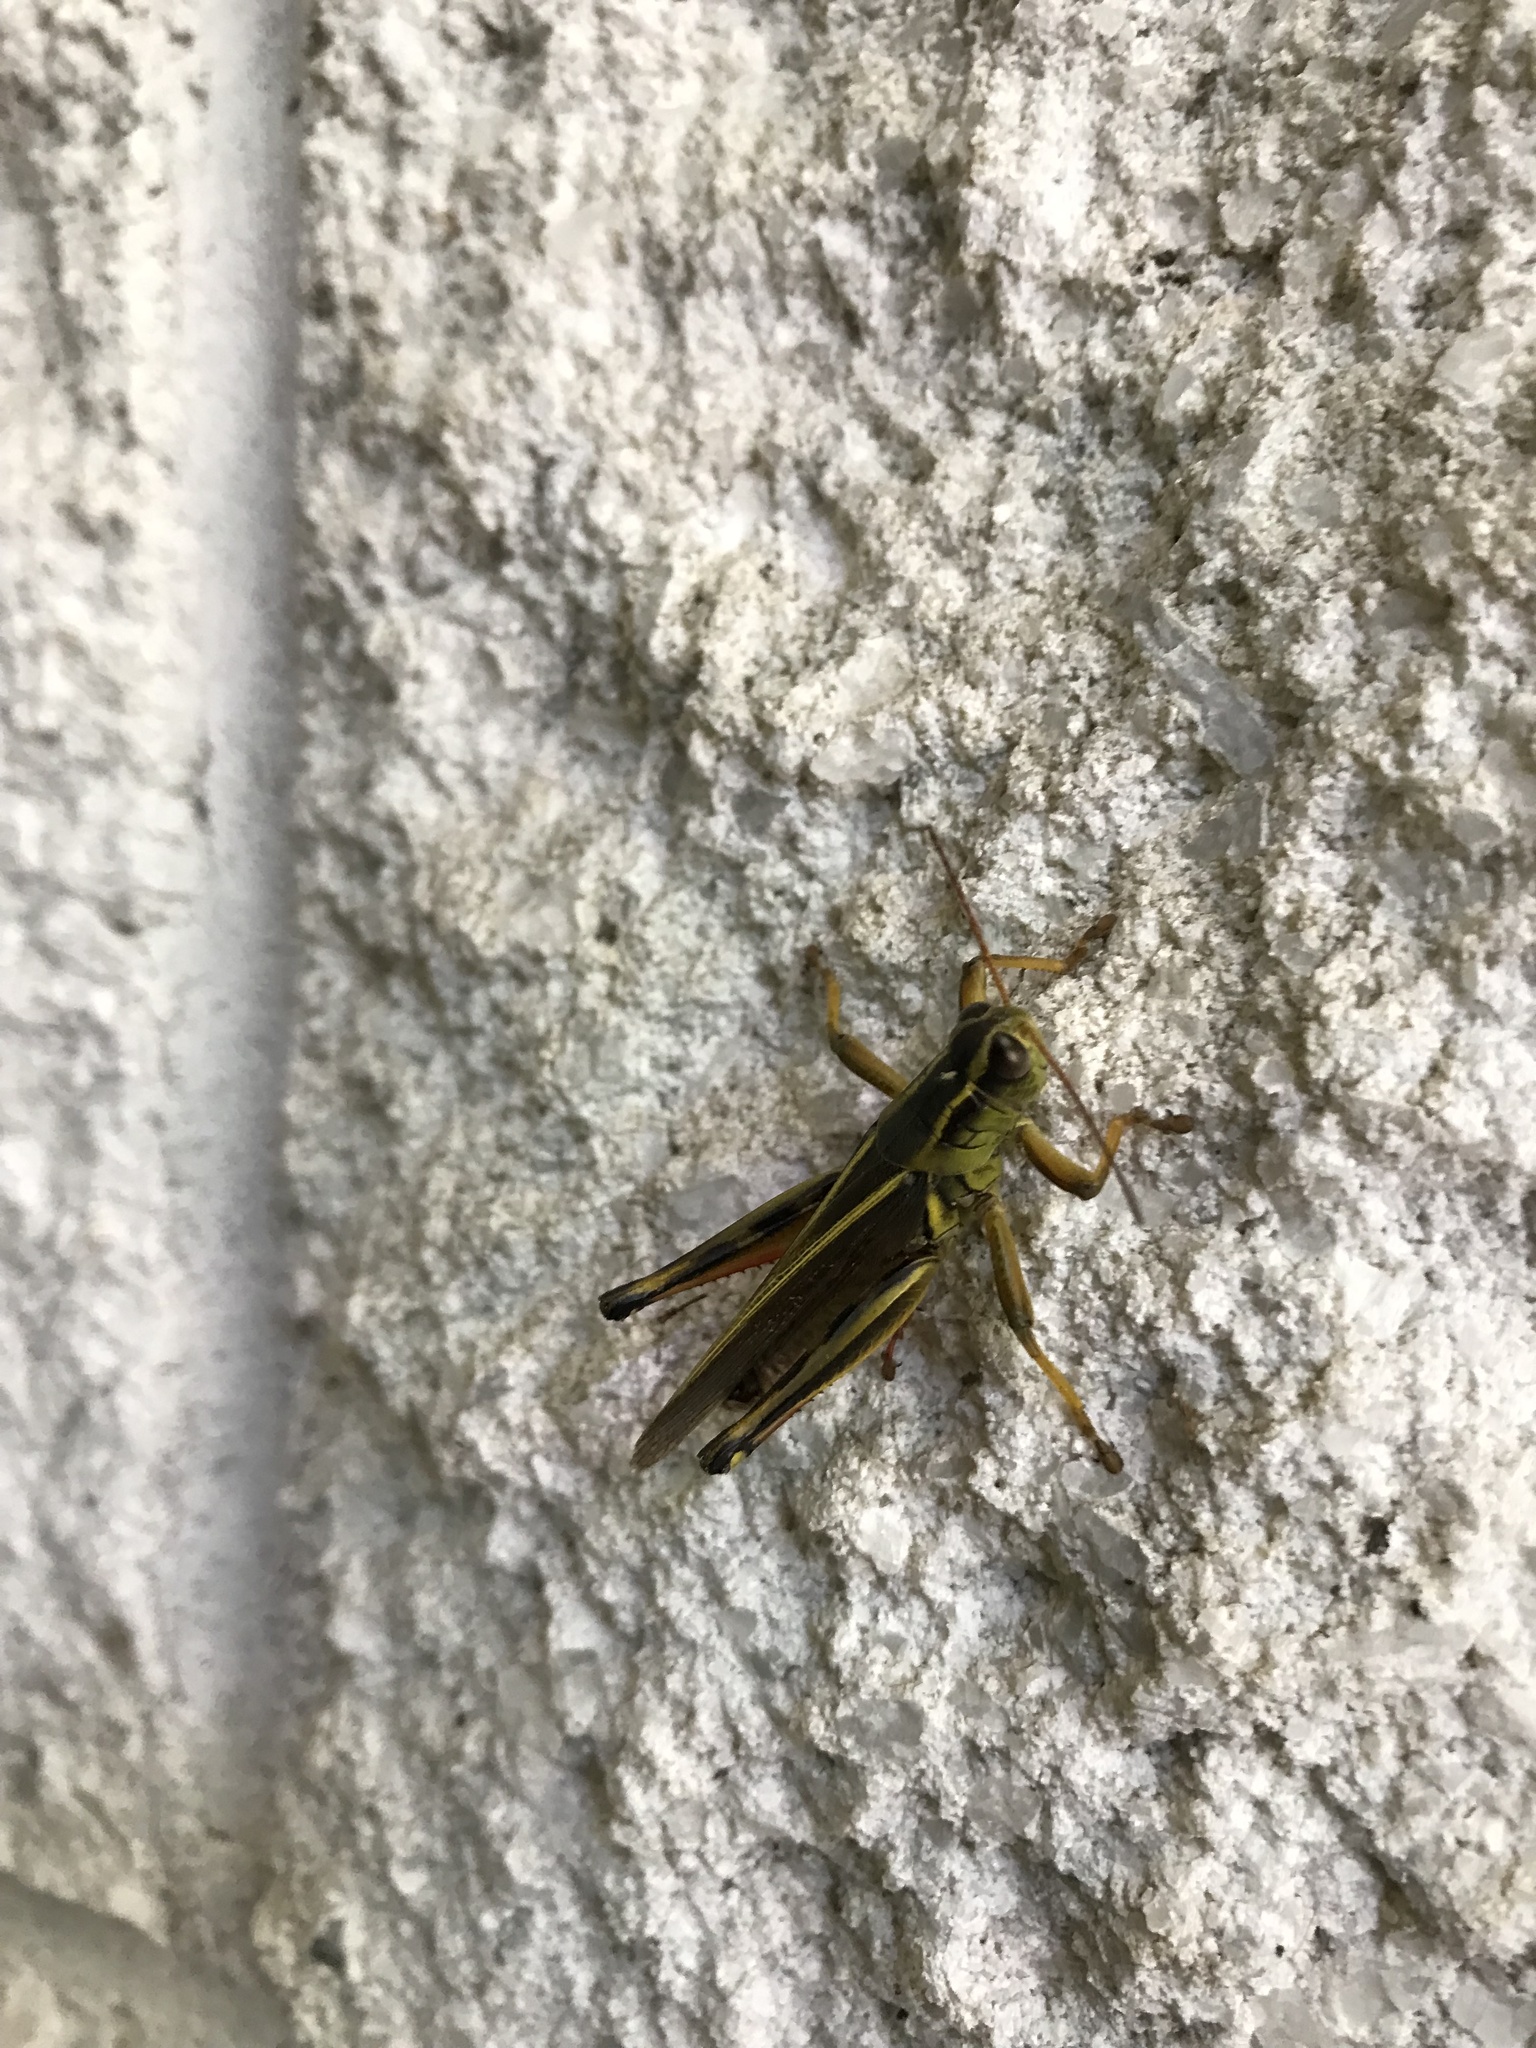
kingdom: Animalia
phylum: Arthropoda
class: Insecta
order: Orthoptera
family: Acrididae
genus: Melanoplus
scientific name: Melanoplus bivittatus
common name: Two-striped grasshopper
